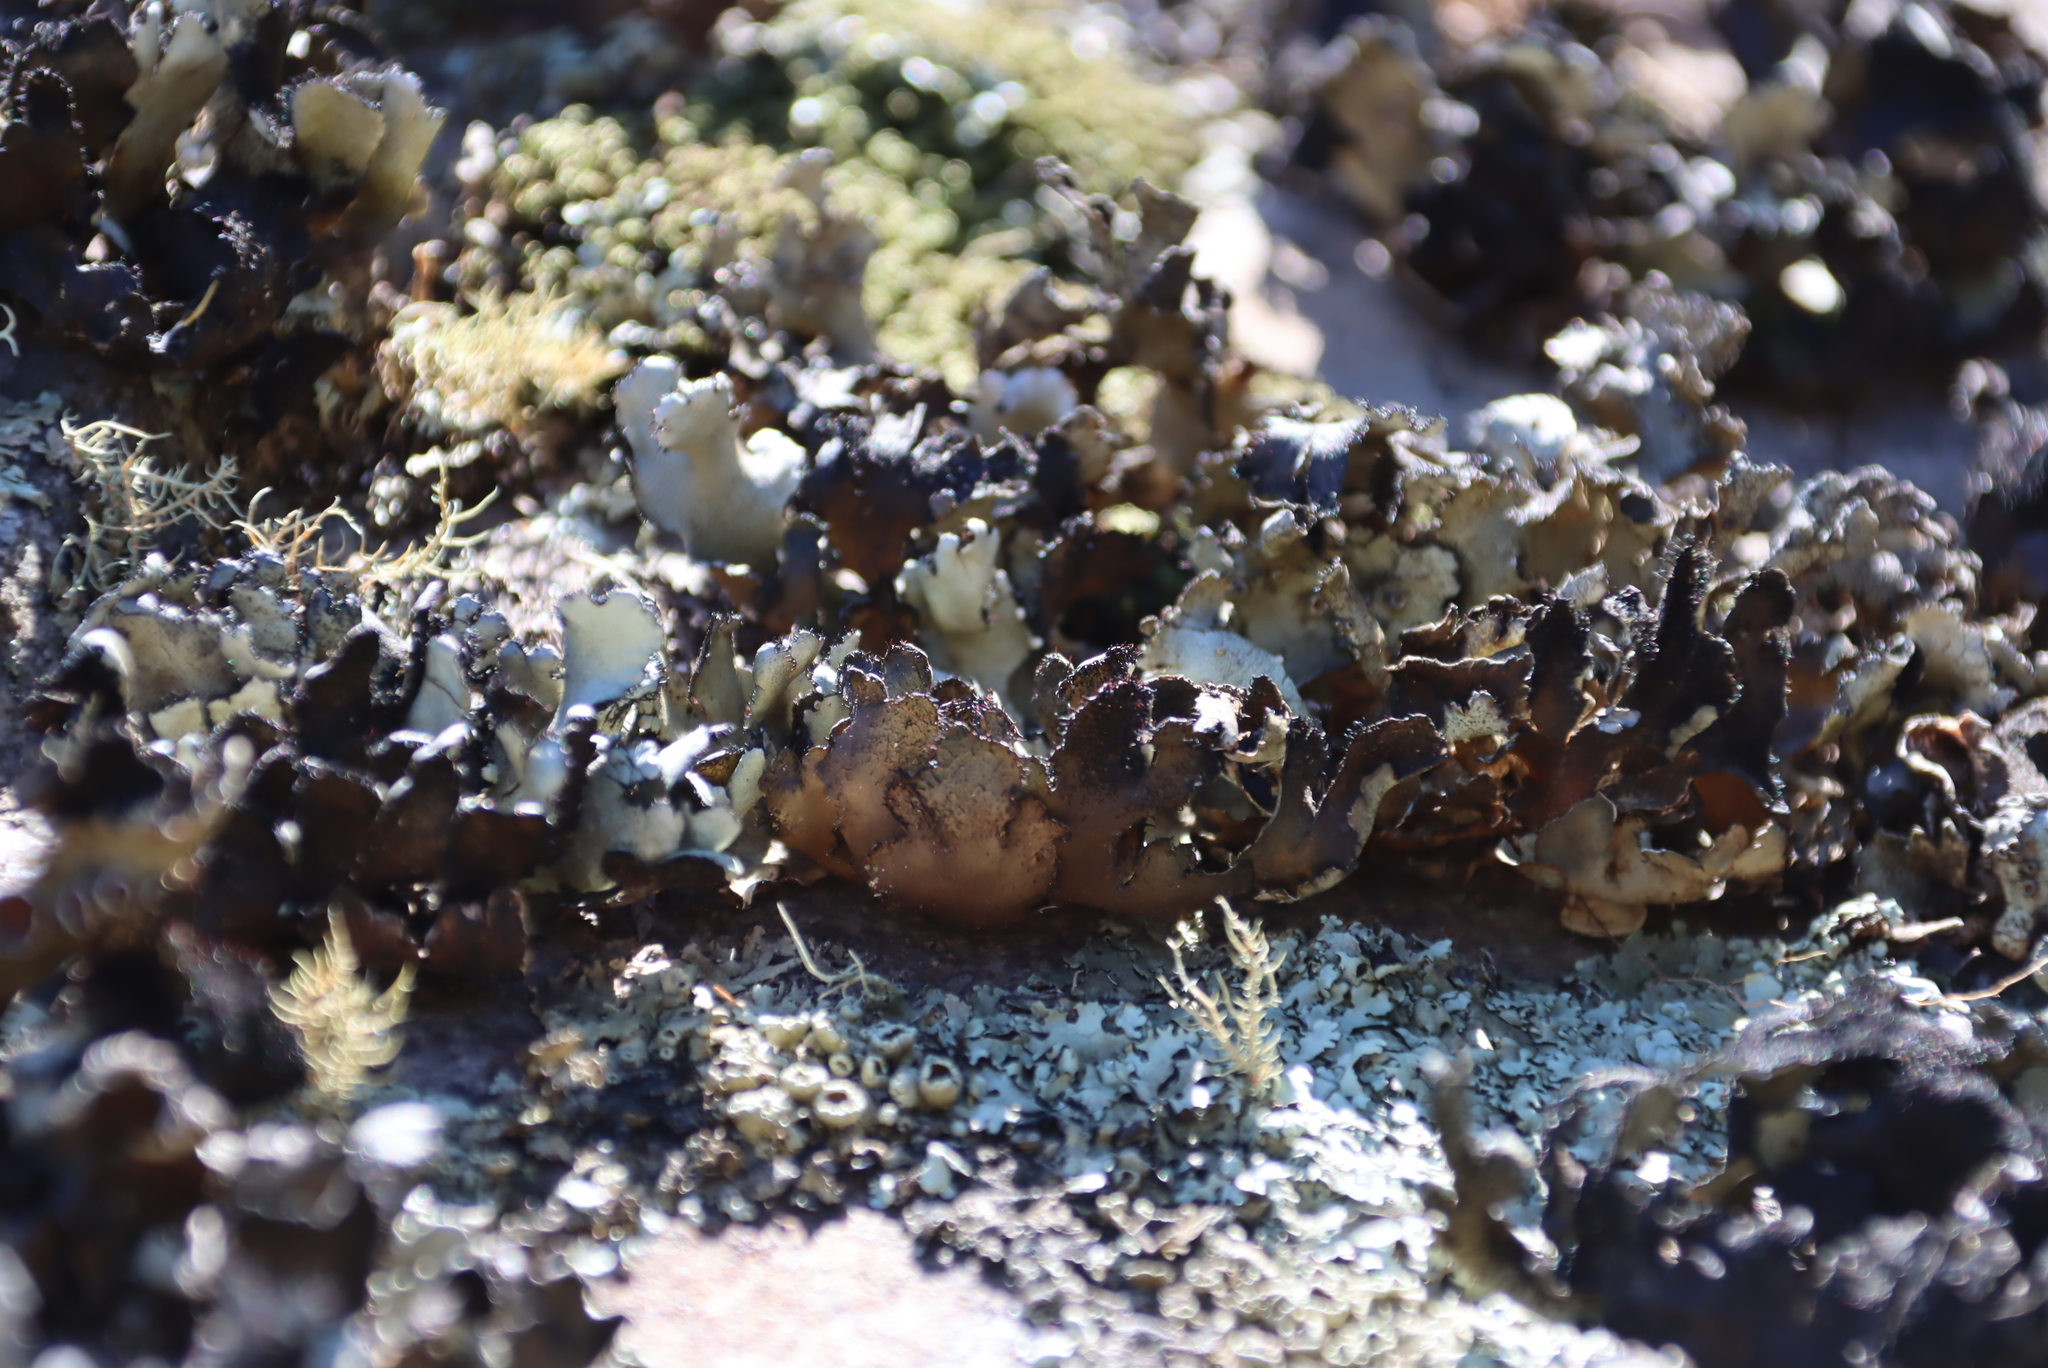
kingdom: Fungi
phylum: Ascomycota
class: Lecanoromycetes
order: Lecanorales
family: Parmeliaceae
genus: Xanthoparmelia
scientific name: Xanthoparmelia hottentotta
